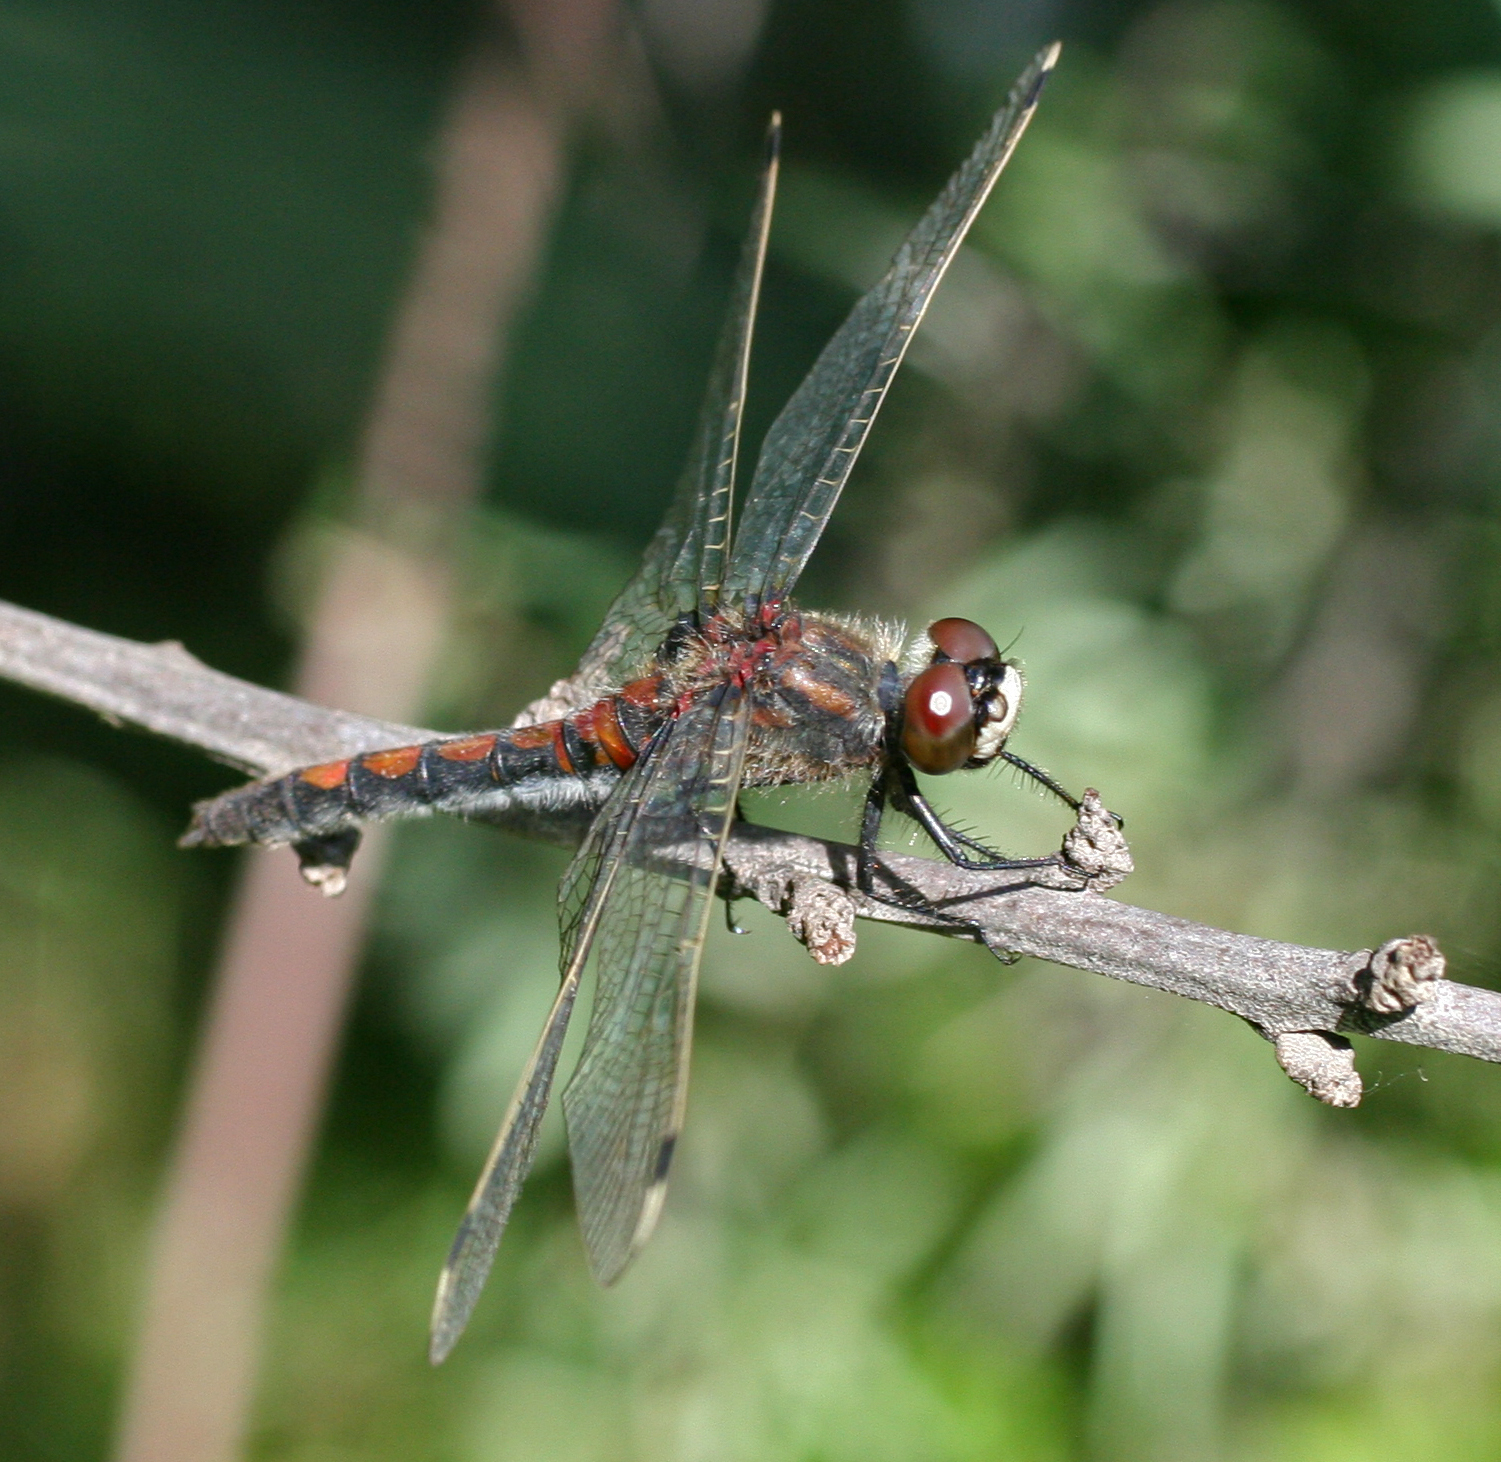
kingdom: Animalia
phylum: Arthropoda
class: Insecta
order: Odonata
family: Libellulidae
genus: Leucorrhinia
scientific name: Leucorrhinia rubicunda
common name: Ruby whiteface
